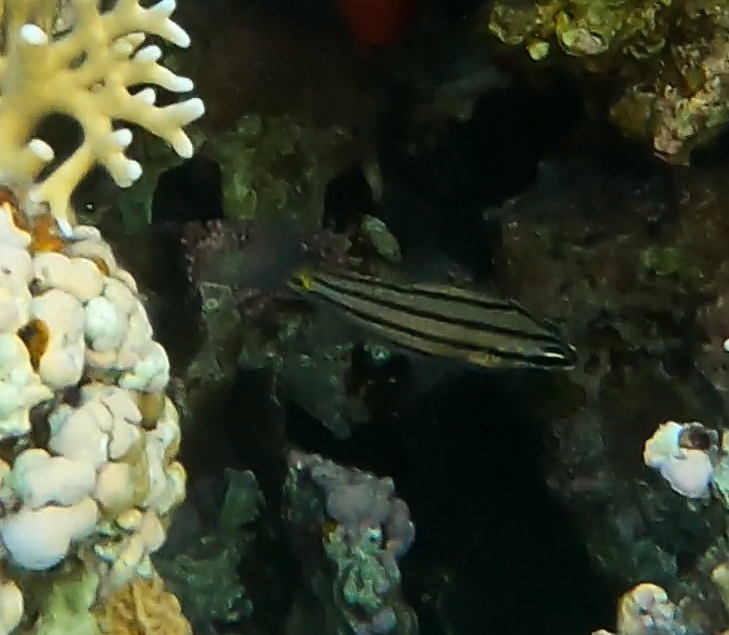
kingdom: Animalia
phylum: Chordata
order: Perciformes
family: Apogonidae
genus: Cheilodipterus
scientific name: Cheilodipterus quinquelineatus
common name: Five-lined cardinalfish
